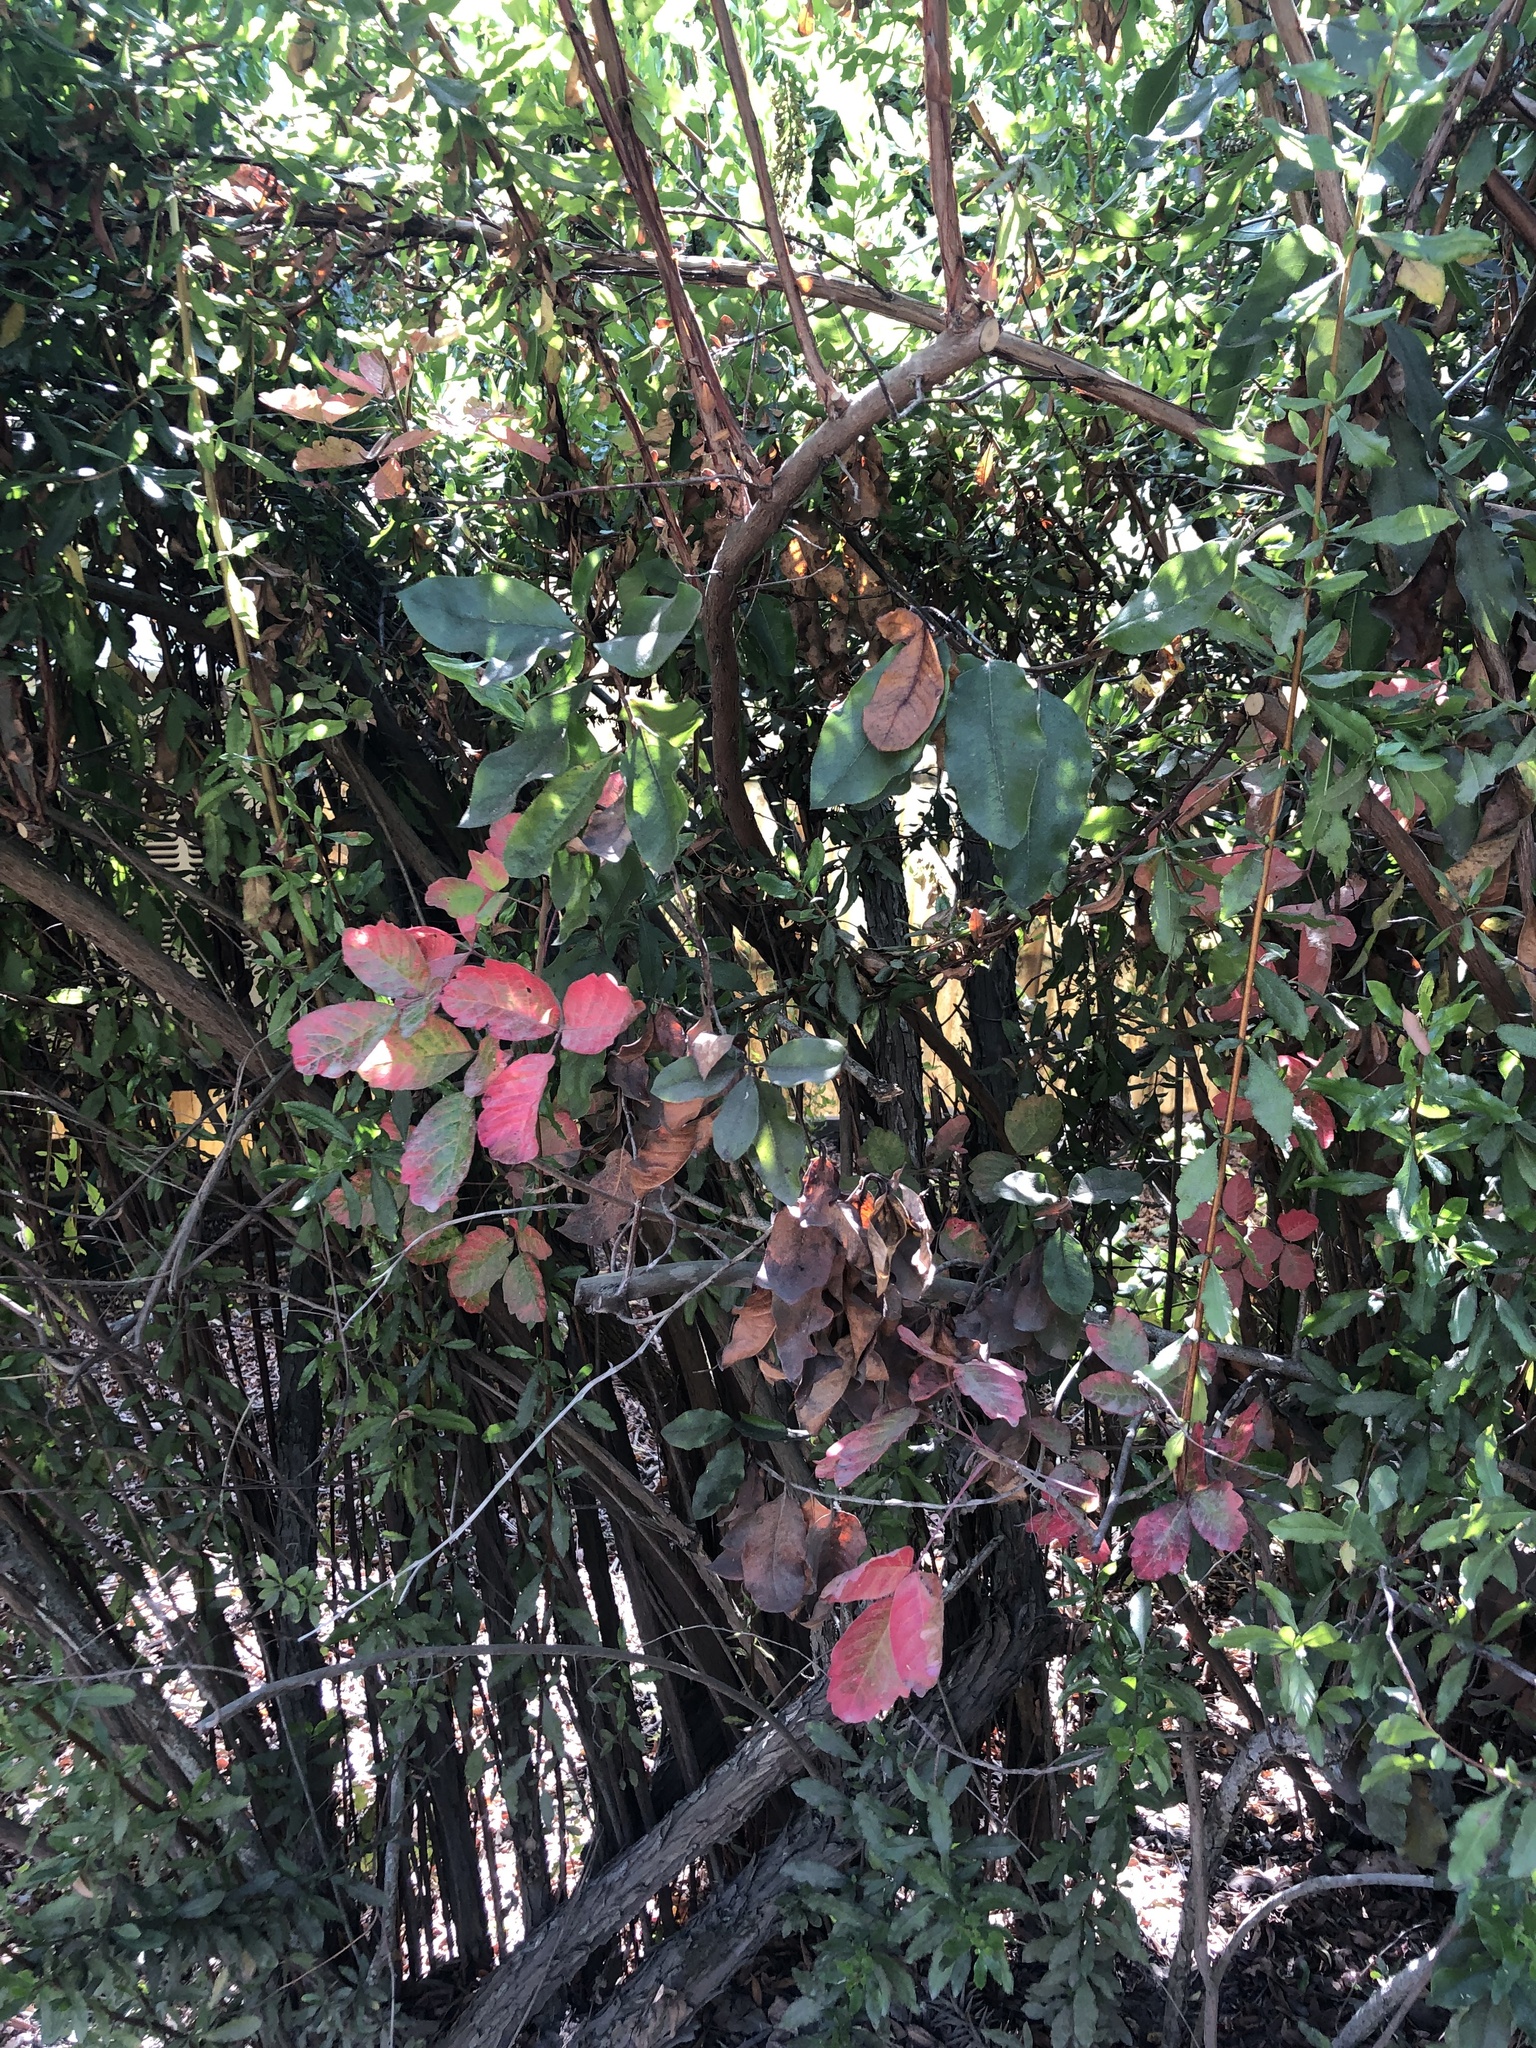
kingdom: Plantae
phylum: Tracheophyta
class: Magnoliopsida
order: Sapindales
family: Anacardiaceae
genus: Toxicodendron
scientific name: Toxicodendron diversilobum
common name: Pacific poison-oak
